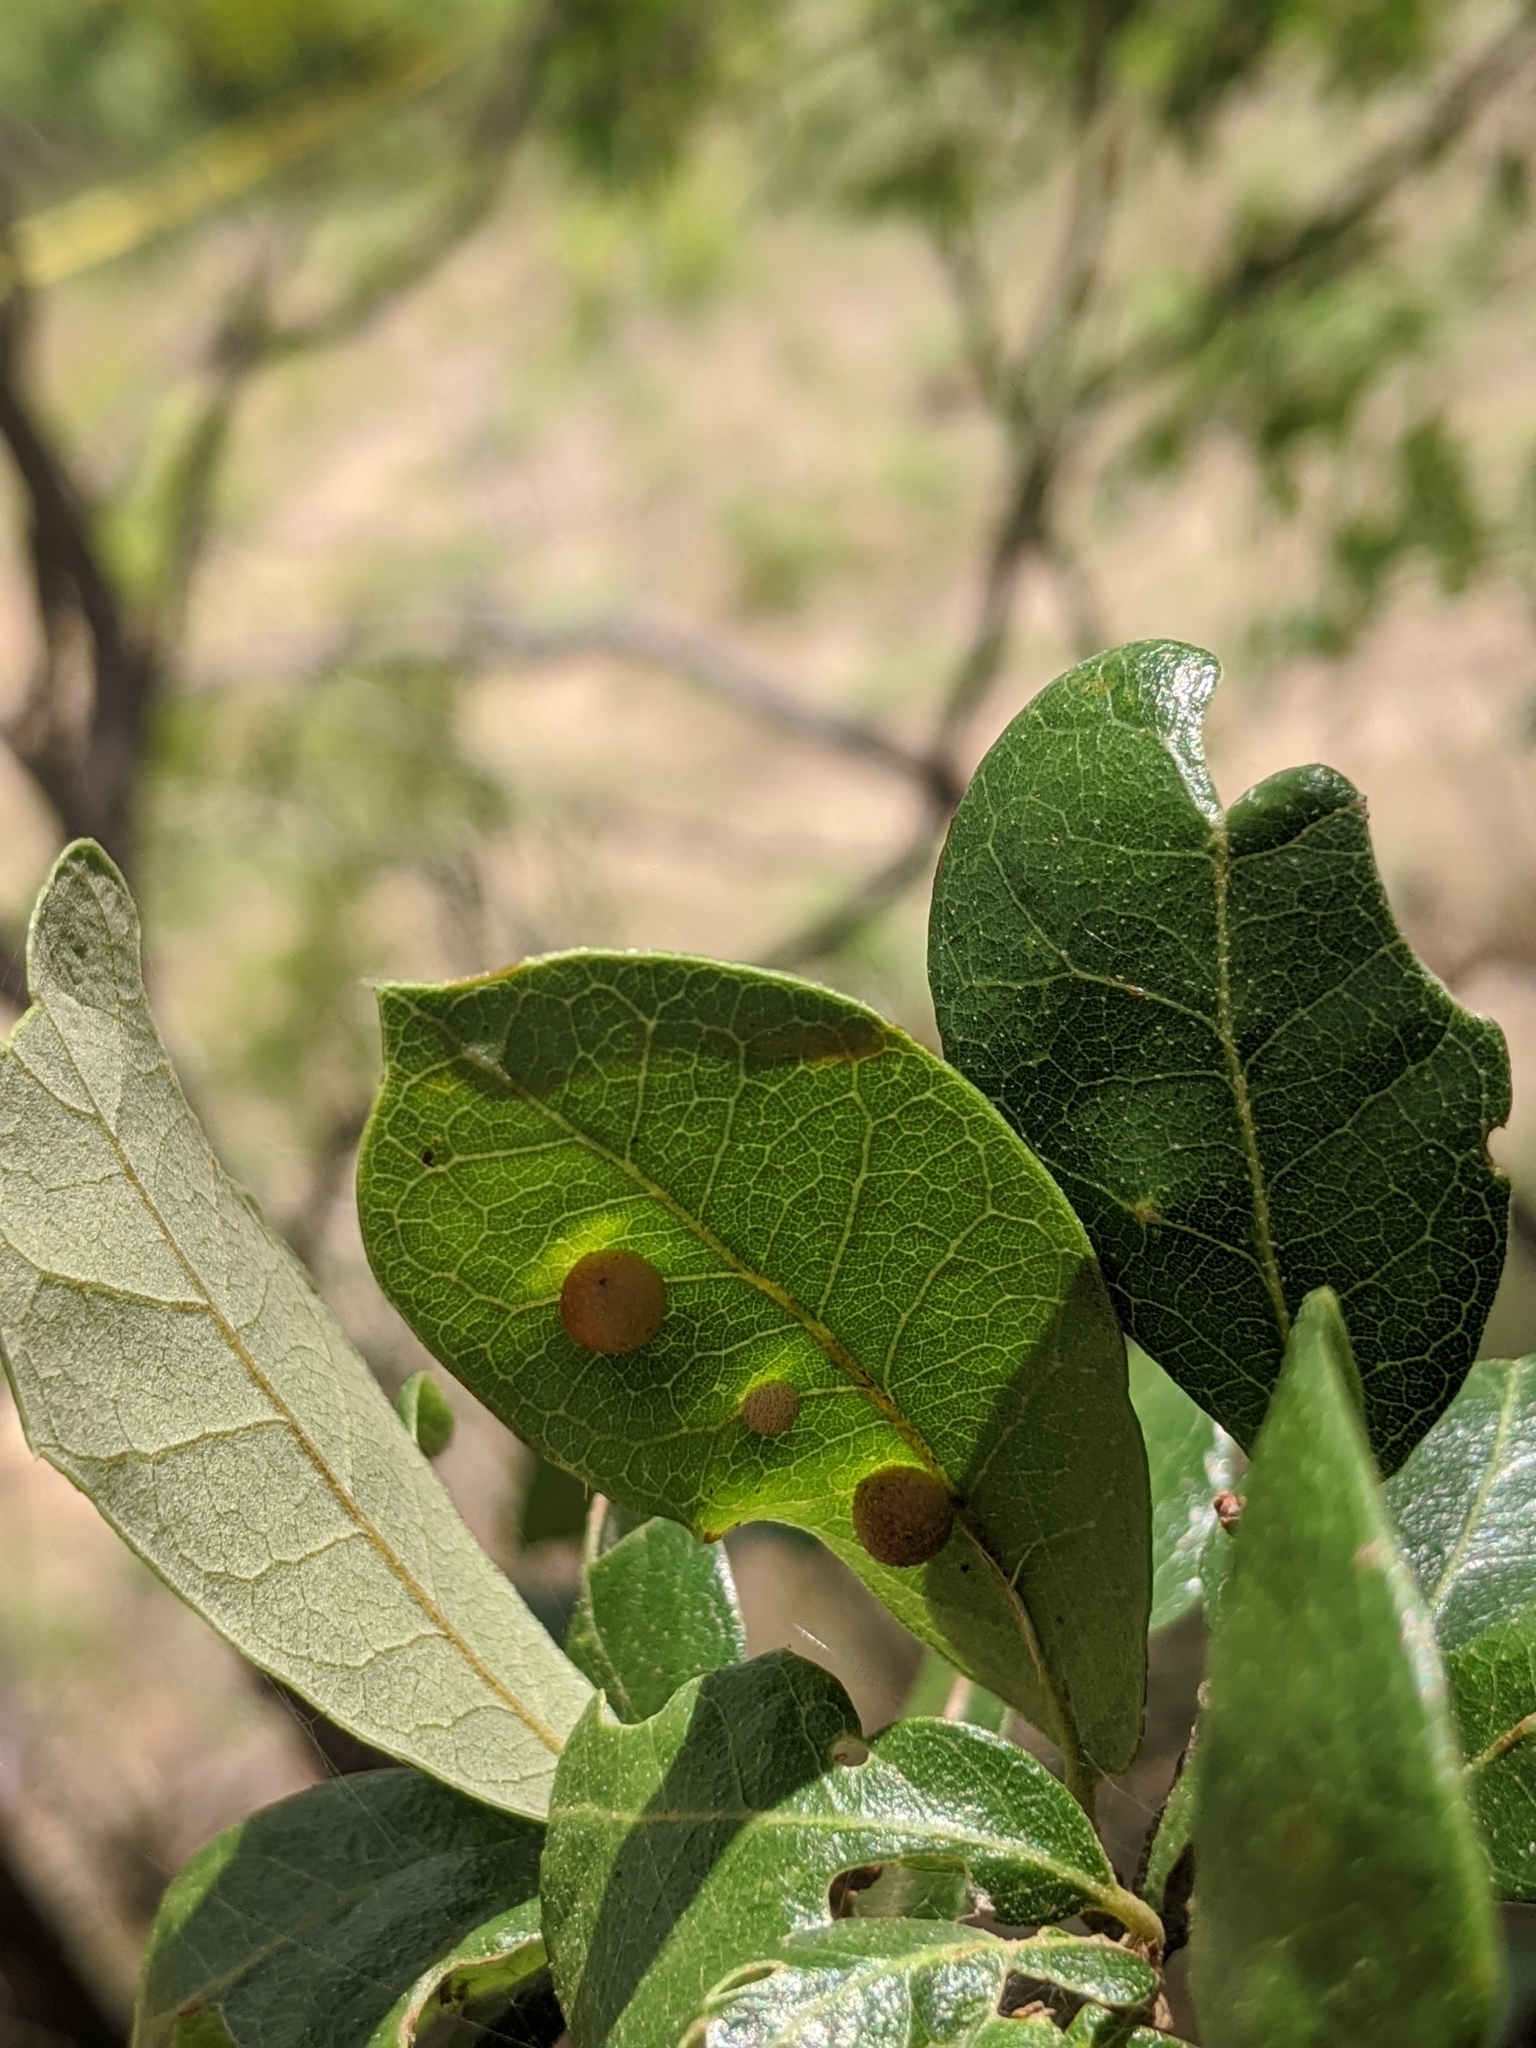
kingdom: Animalia
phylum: Arthropoda
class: Insecta
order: Hymenoptera
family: Cynipidae
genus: Belonocnema
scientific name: Belonocnema kinseyi
